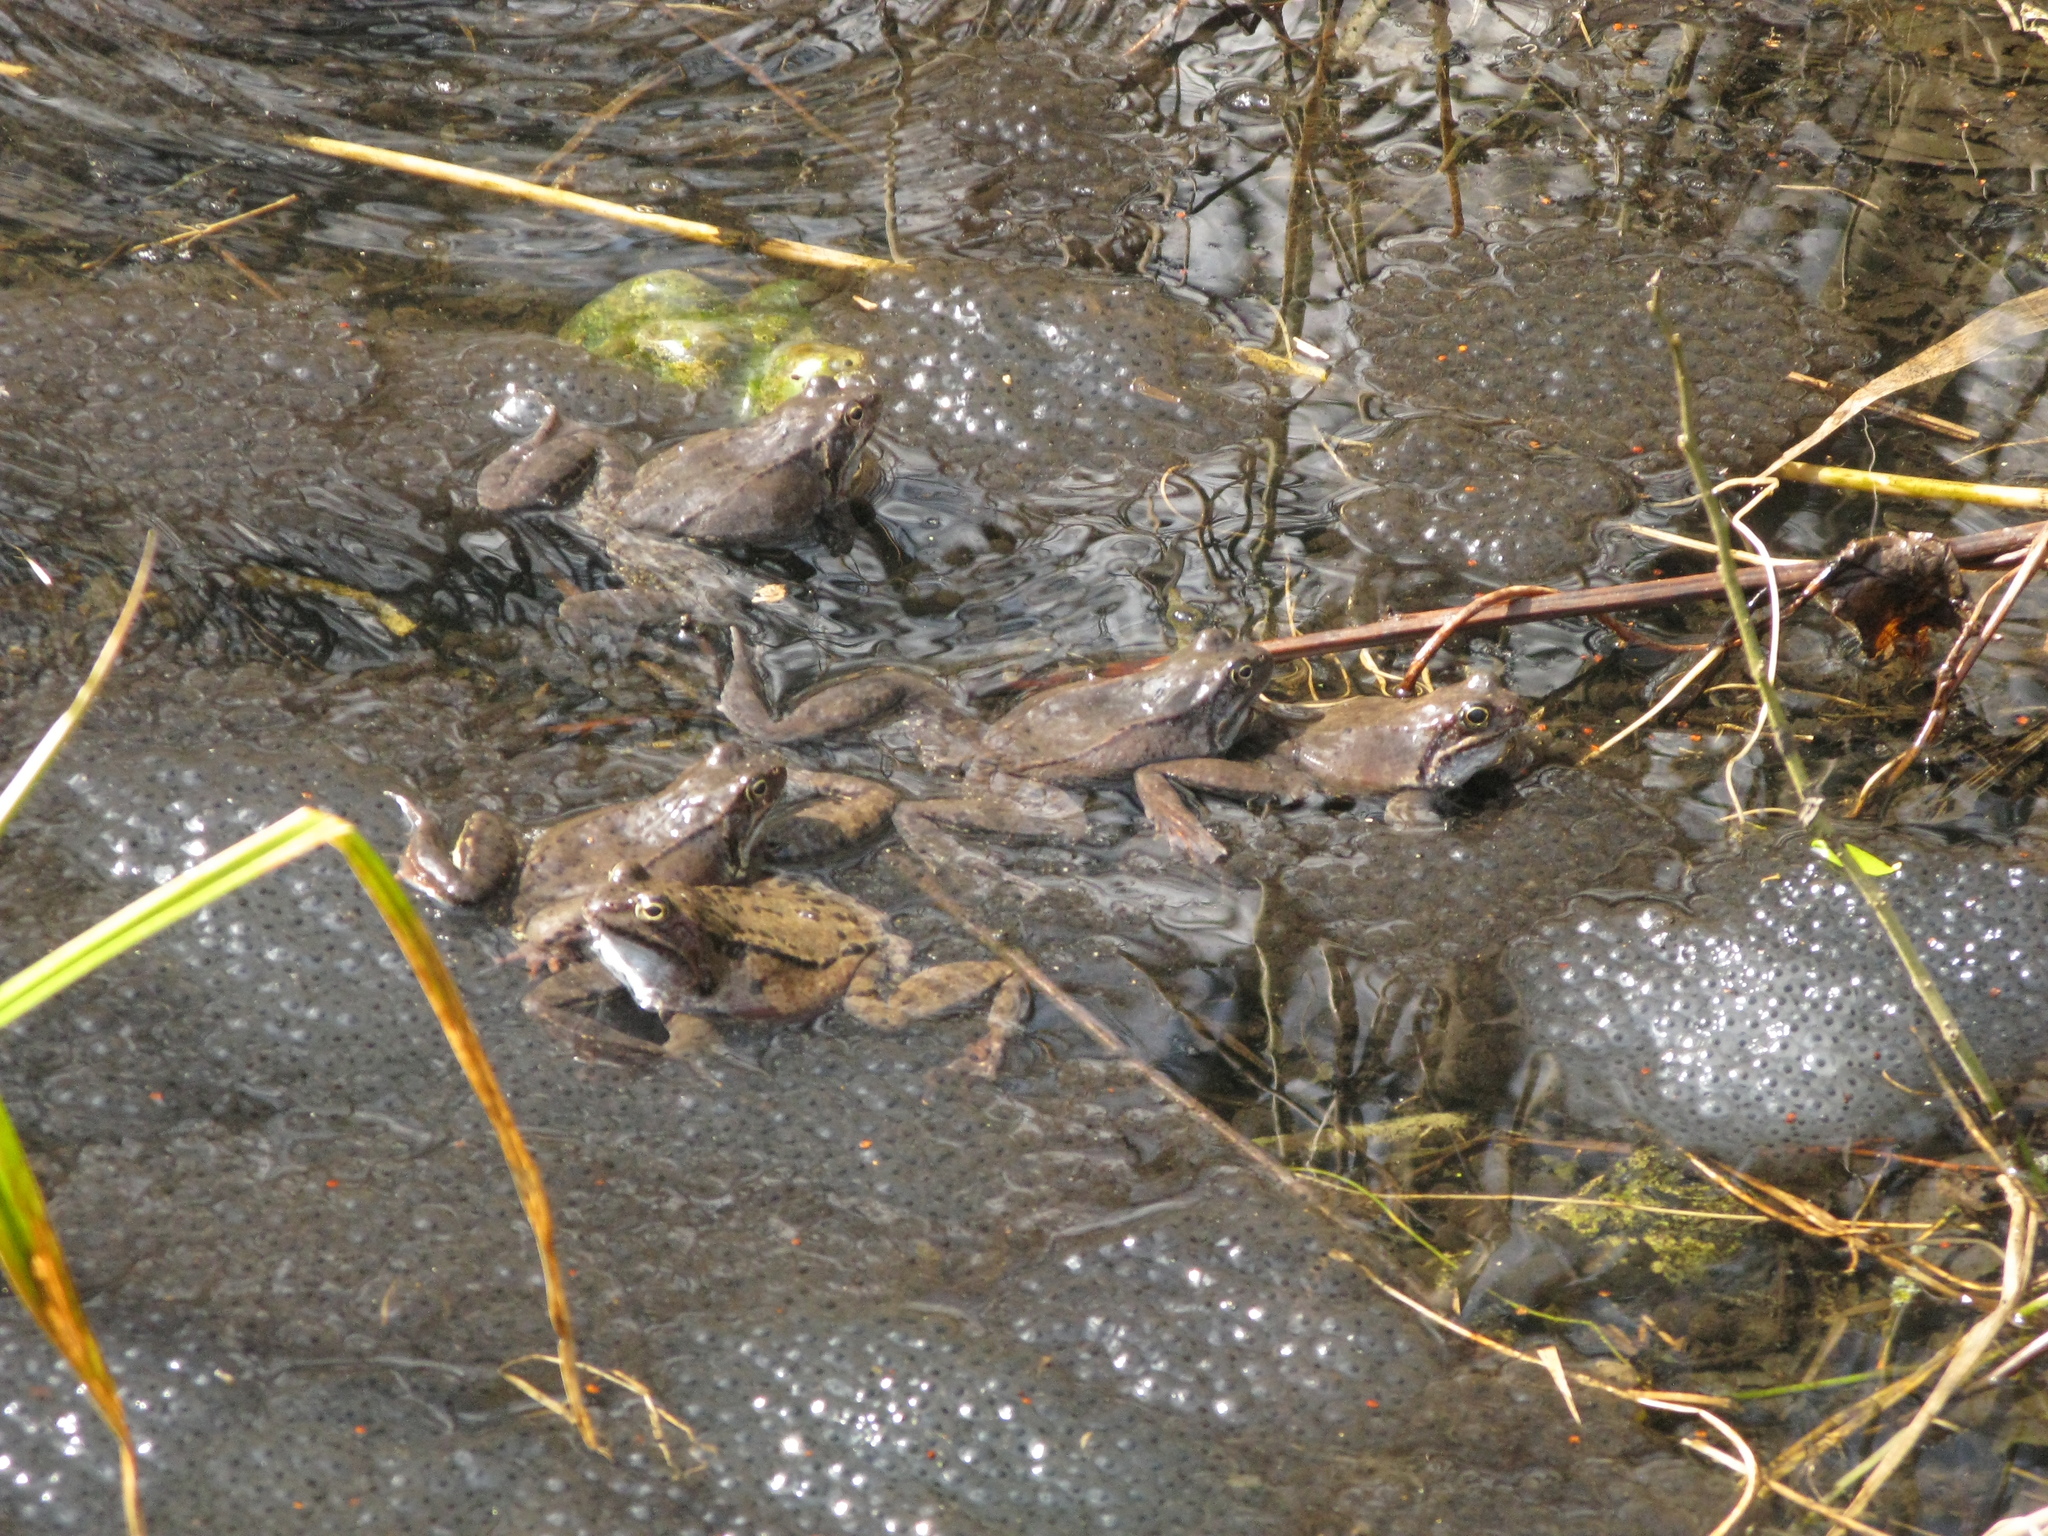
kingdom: Animalia
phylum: Chordata
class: Amphibia
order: Anura
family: Ranidae
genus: Rana
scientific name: Rana temporaria
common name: Common frog
